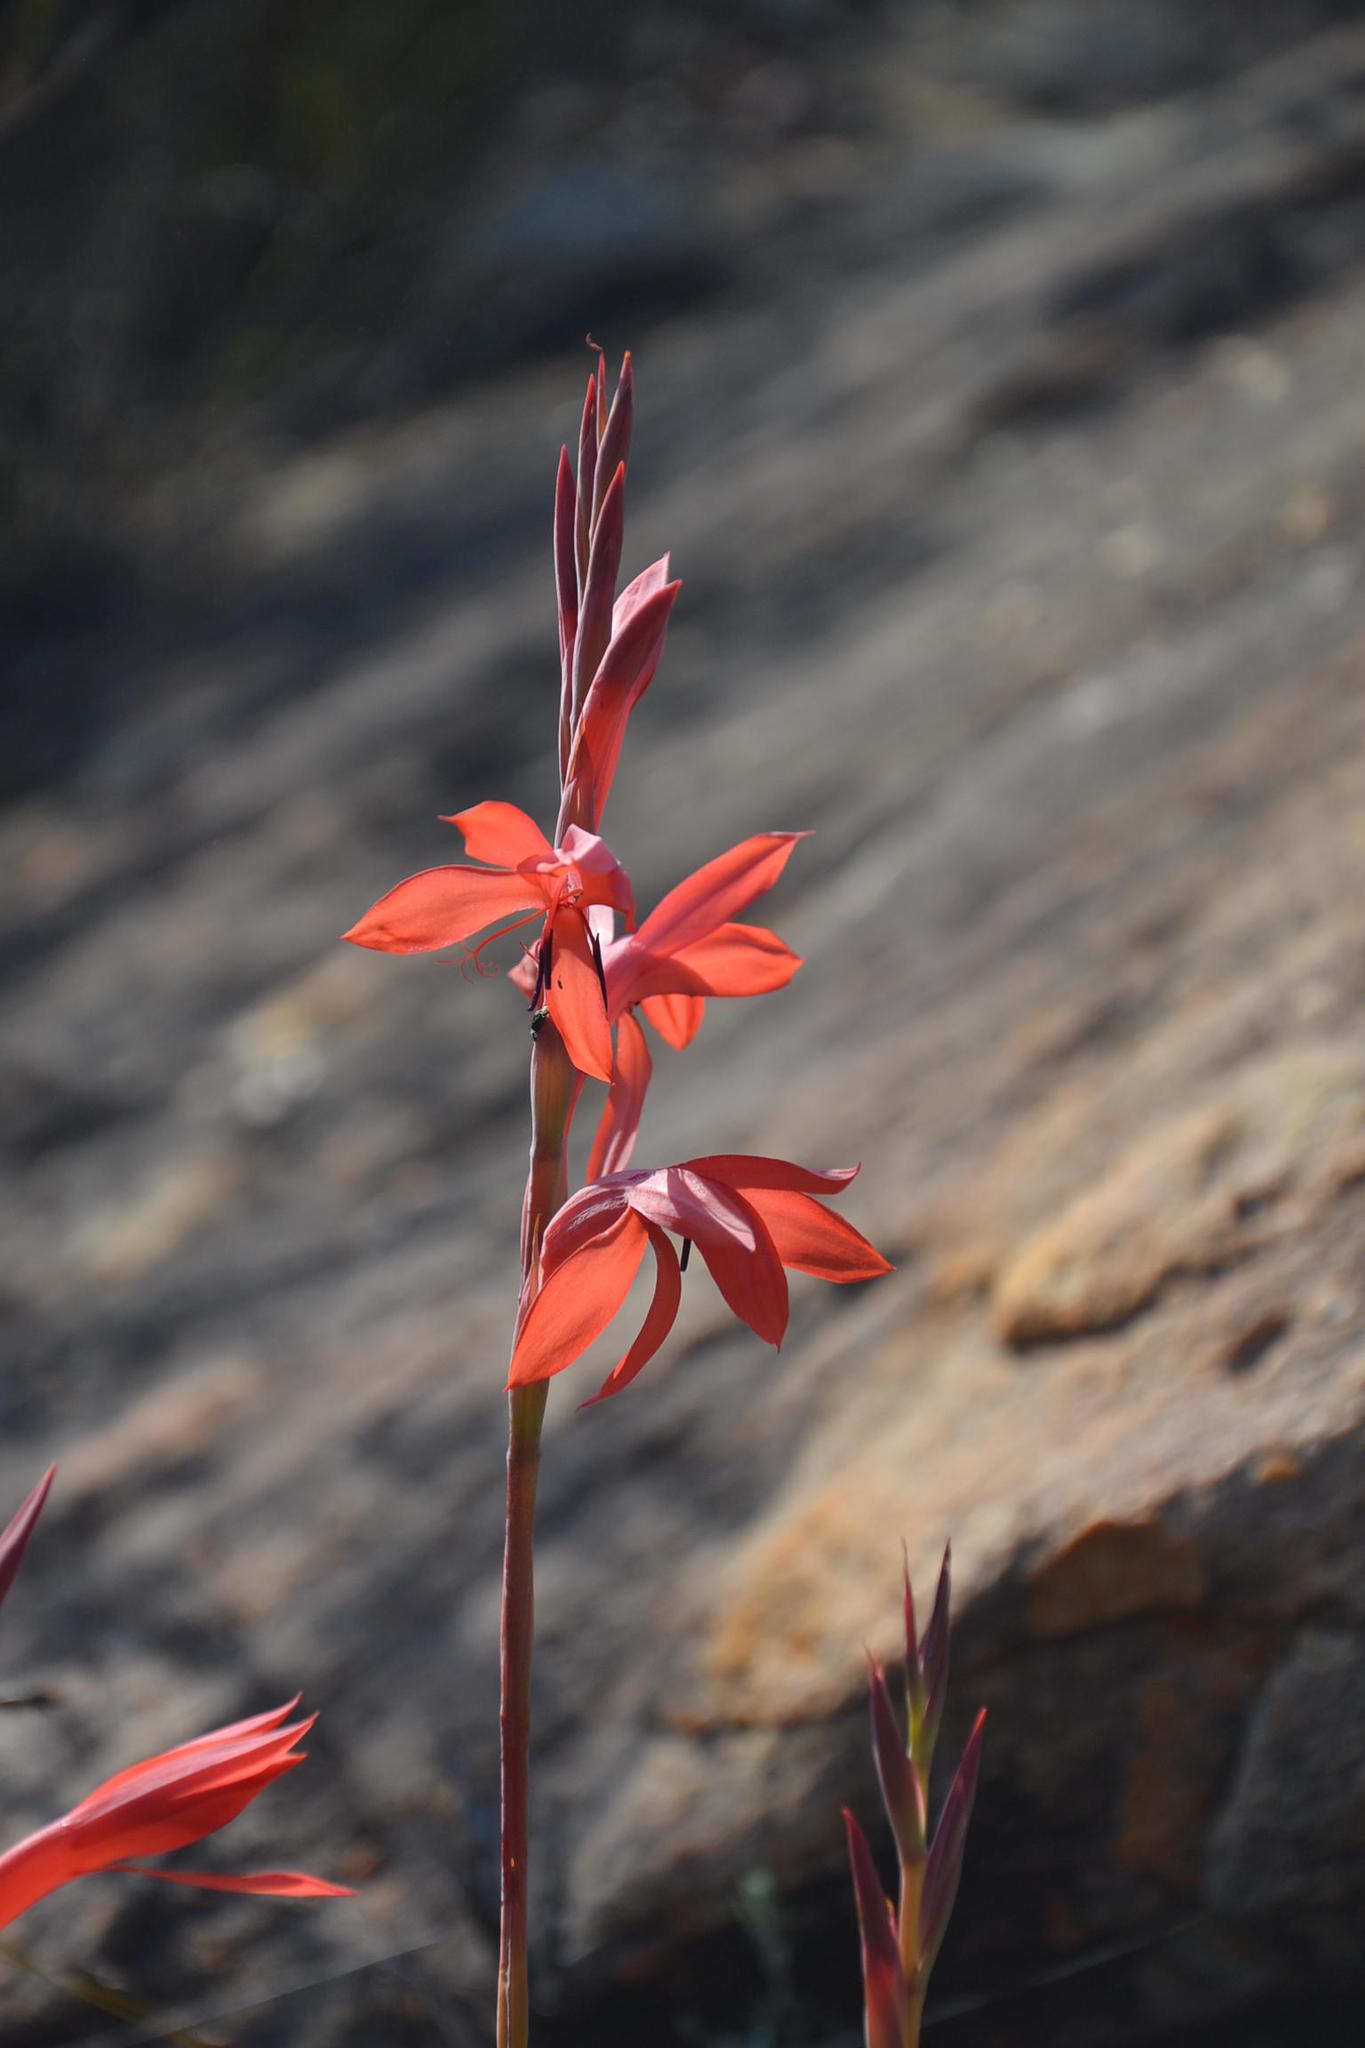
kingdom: Plantae
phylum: Tracheophyta
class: Liliopsida
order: Asparagales
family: Iridaceae
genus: Watsonia
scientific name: Watsonia vanderspuyae
